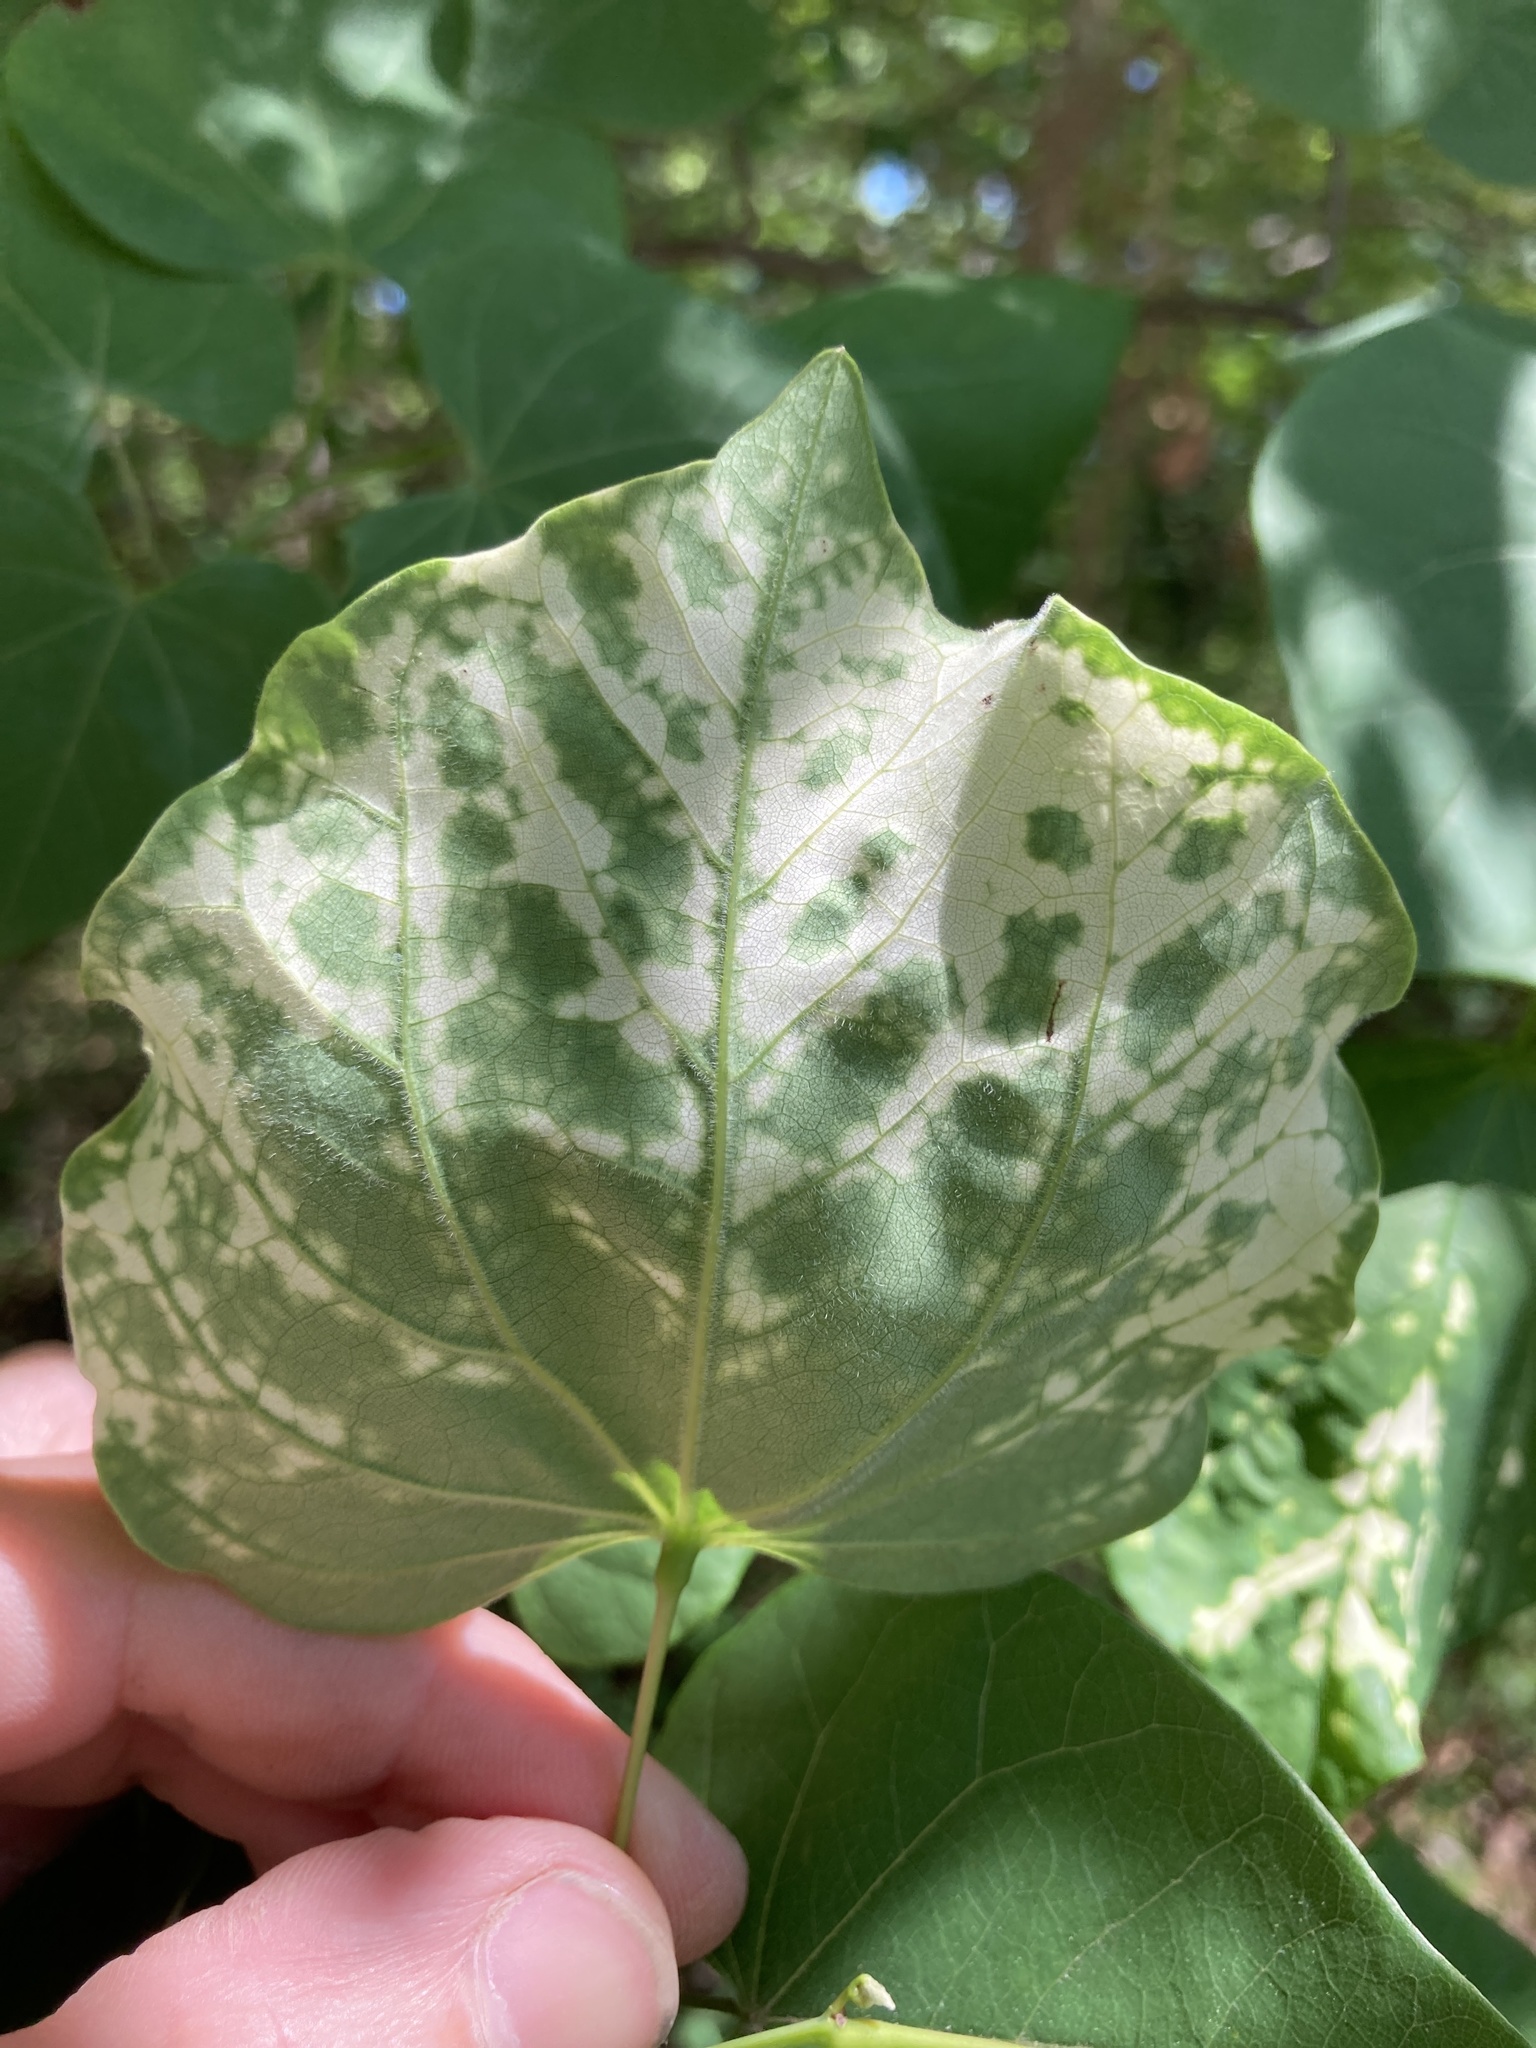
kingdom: Plantae
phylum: Tracheophyta
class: Magnoliopsida
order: Fabales
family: Fabaceae
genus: Cercis
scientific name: Cercis canadensis
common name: Eastern redbud
